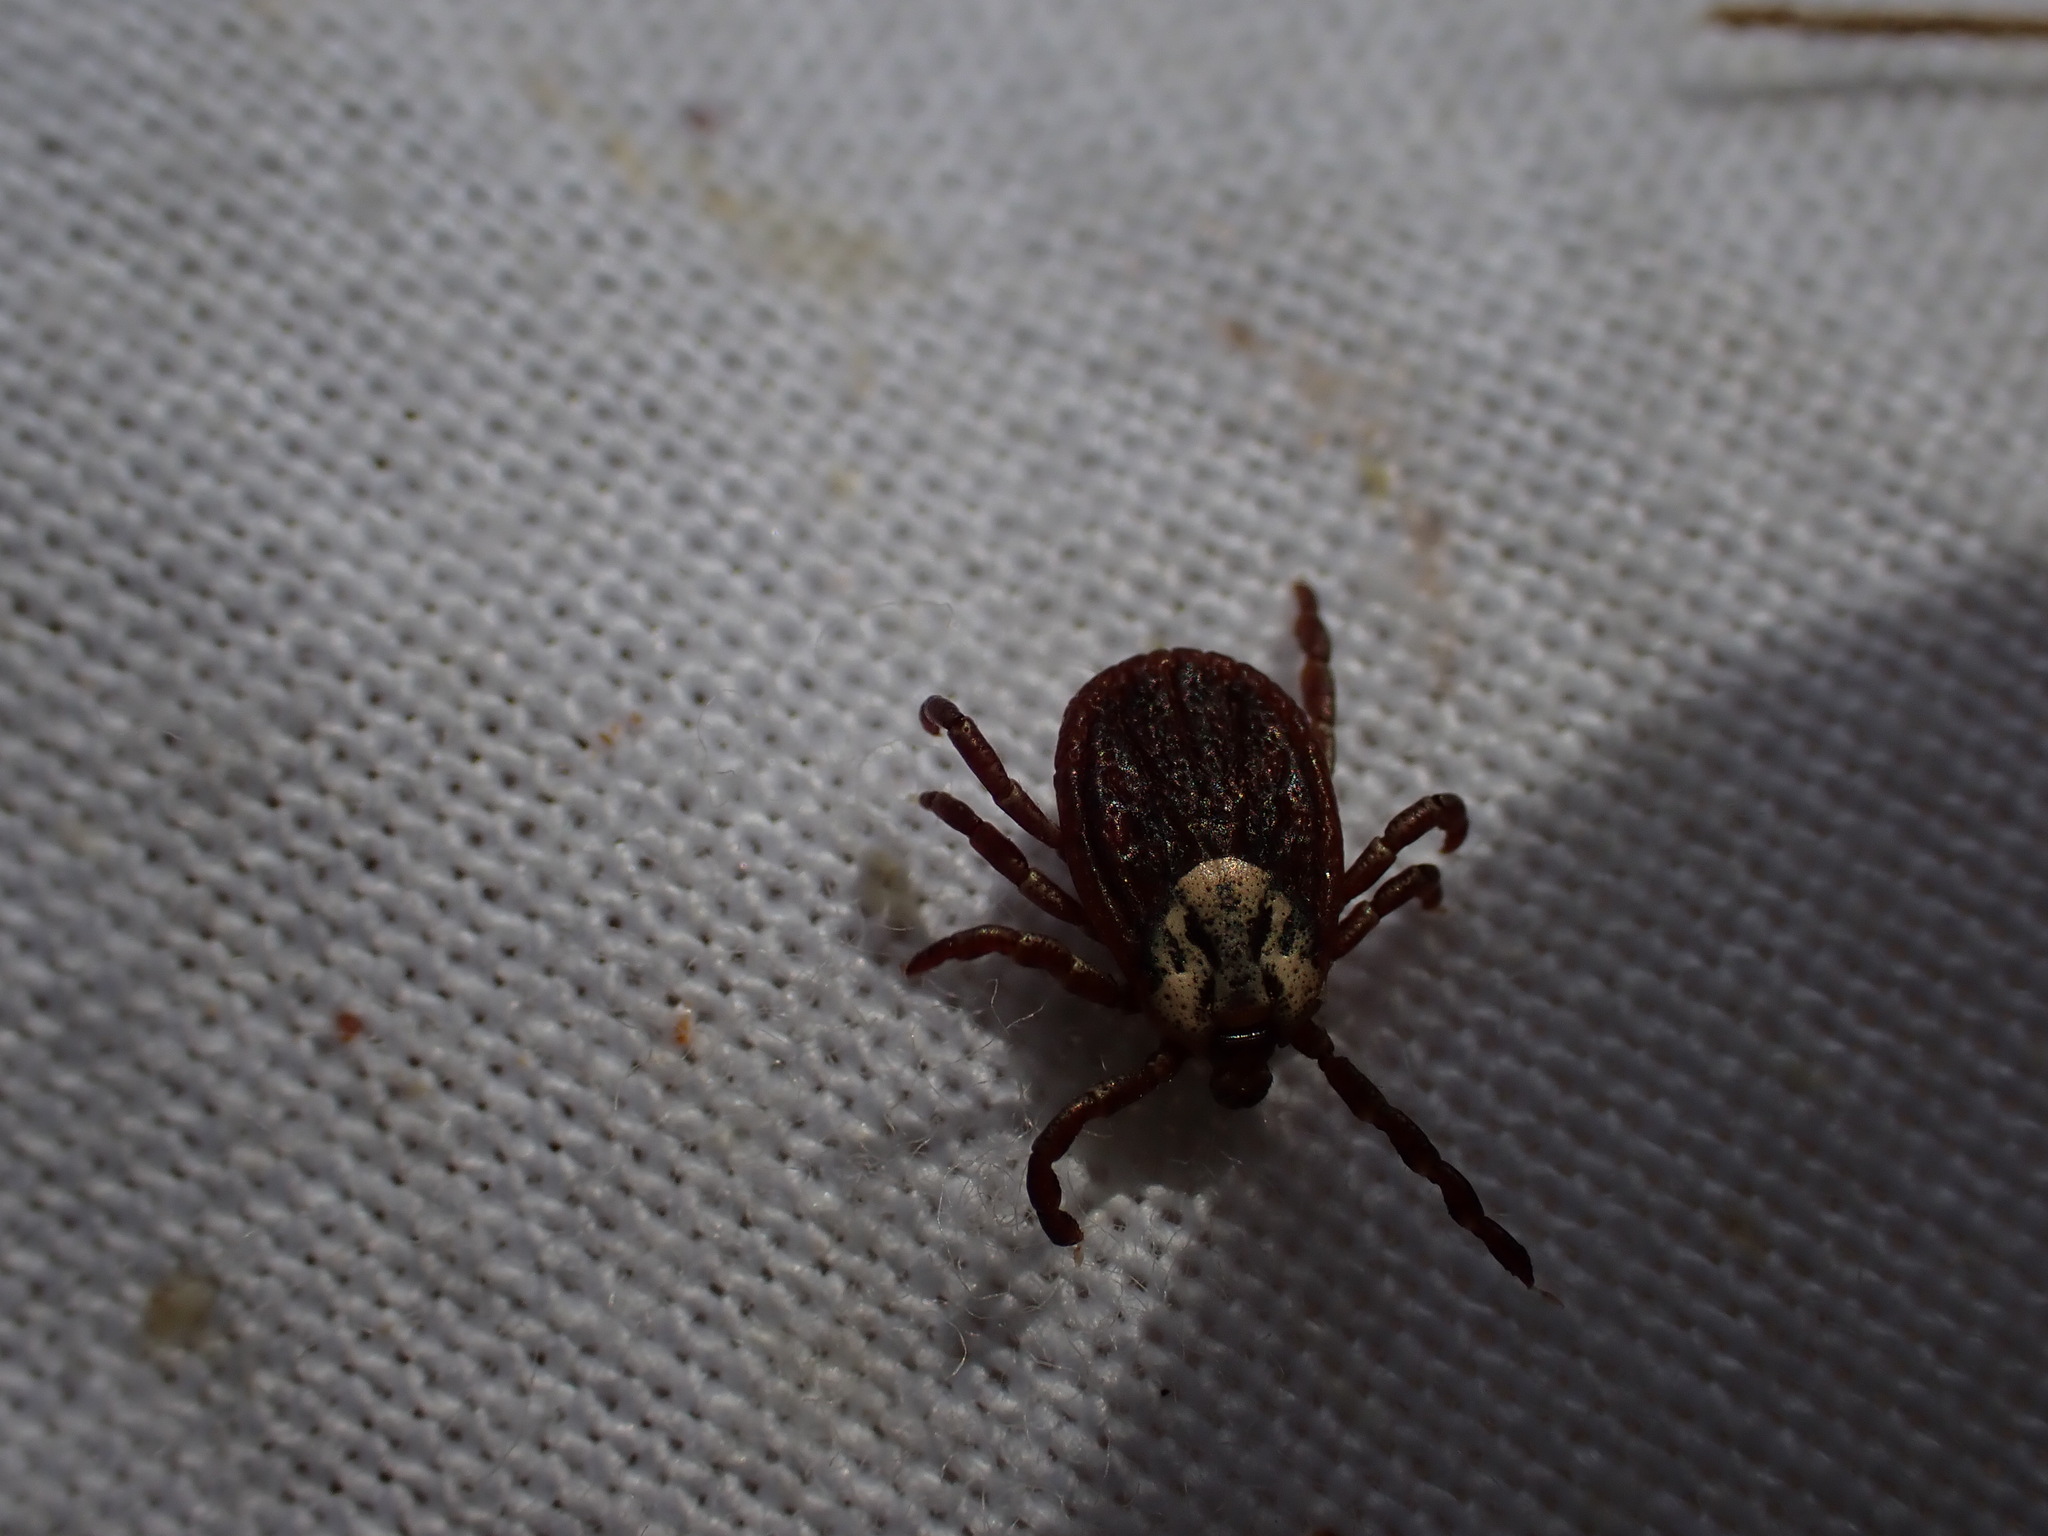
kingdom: Animalia
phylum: Arthropoda
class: Arachnida
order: Ixodida
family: Ixodidae
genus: Dermacentor
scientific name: Dermacentor marginatus
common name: Ornate sheep tick
